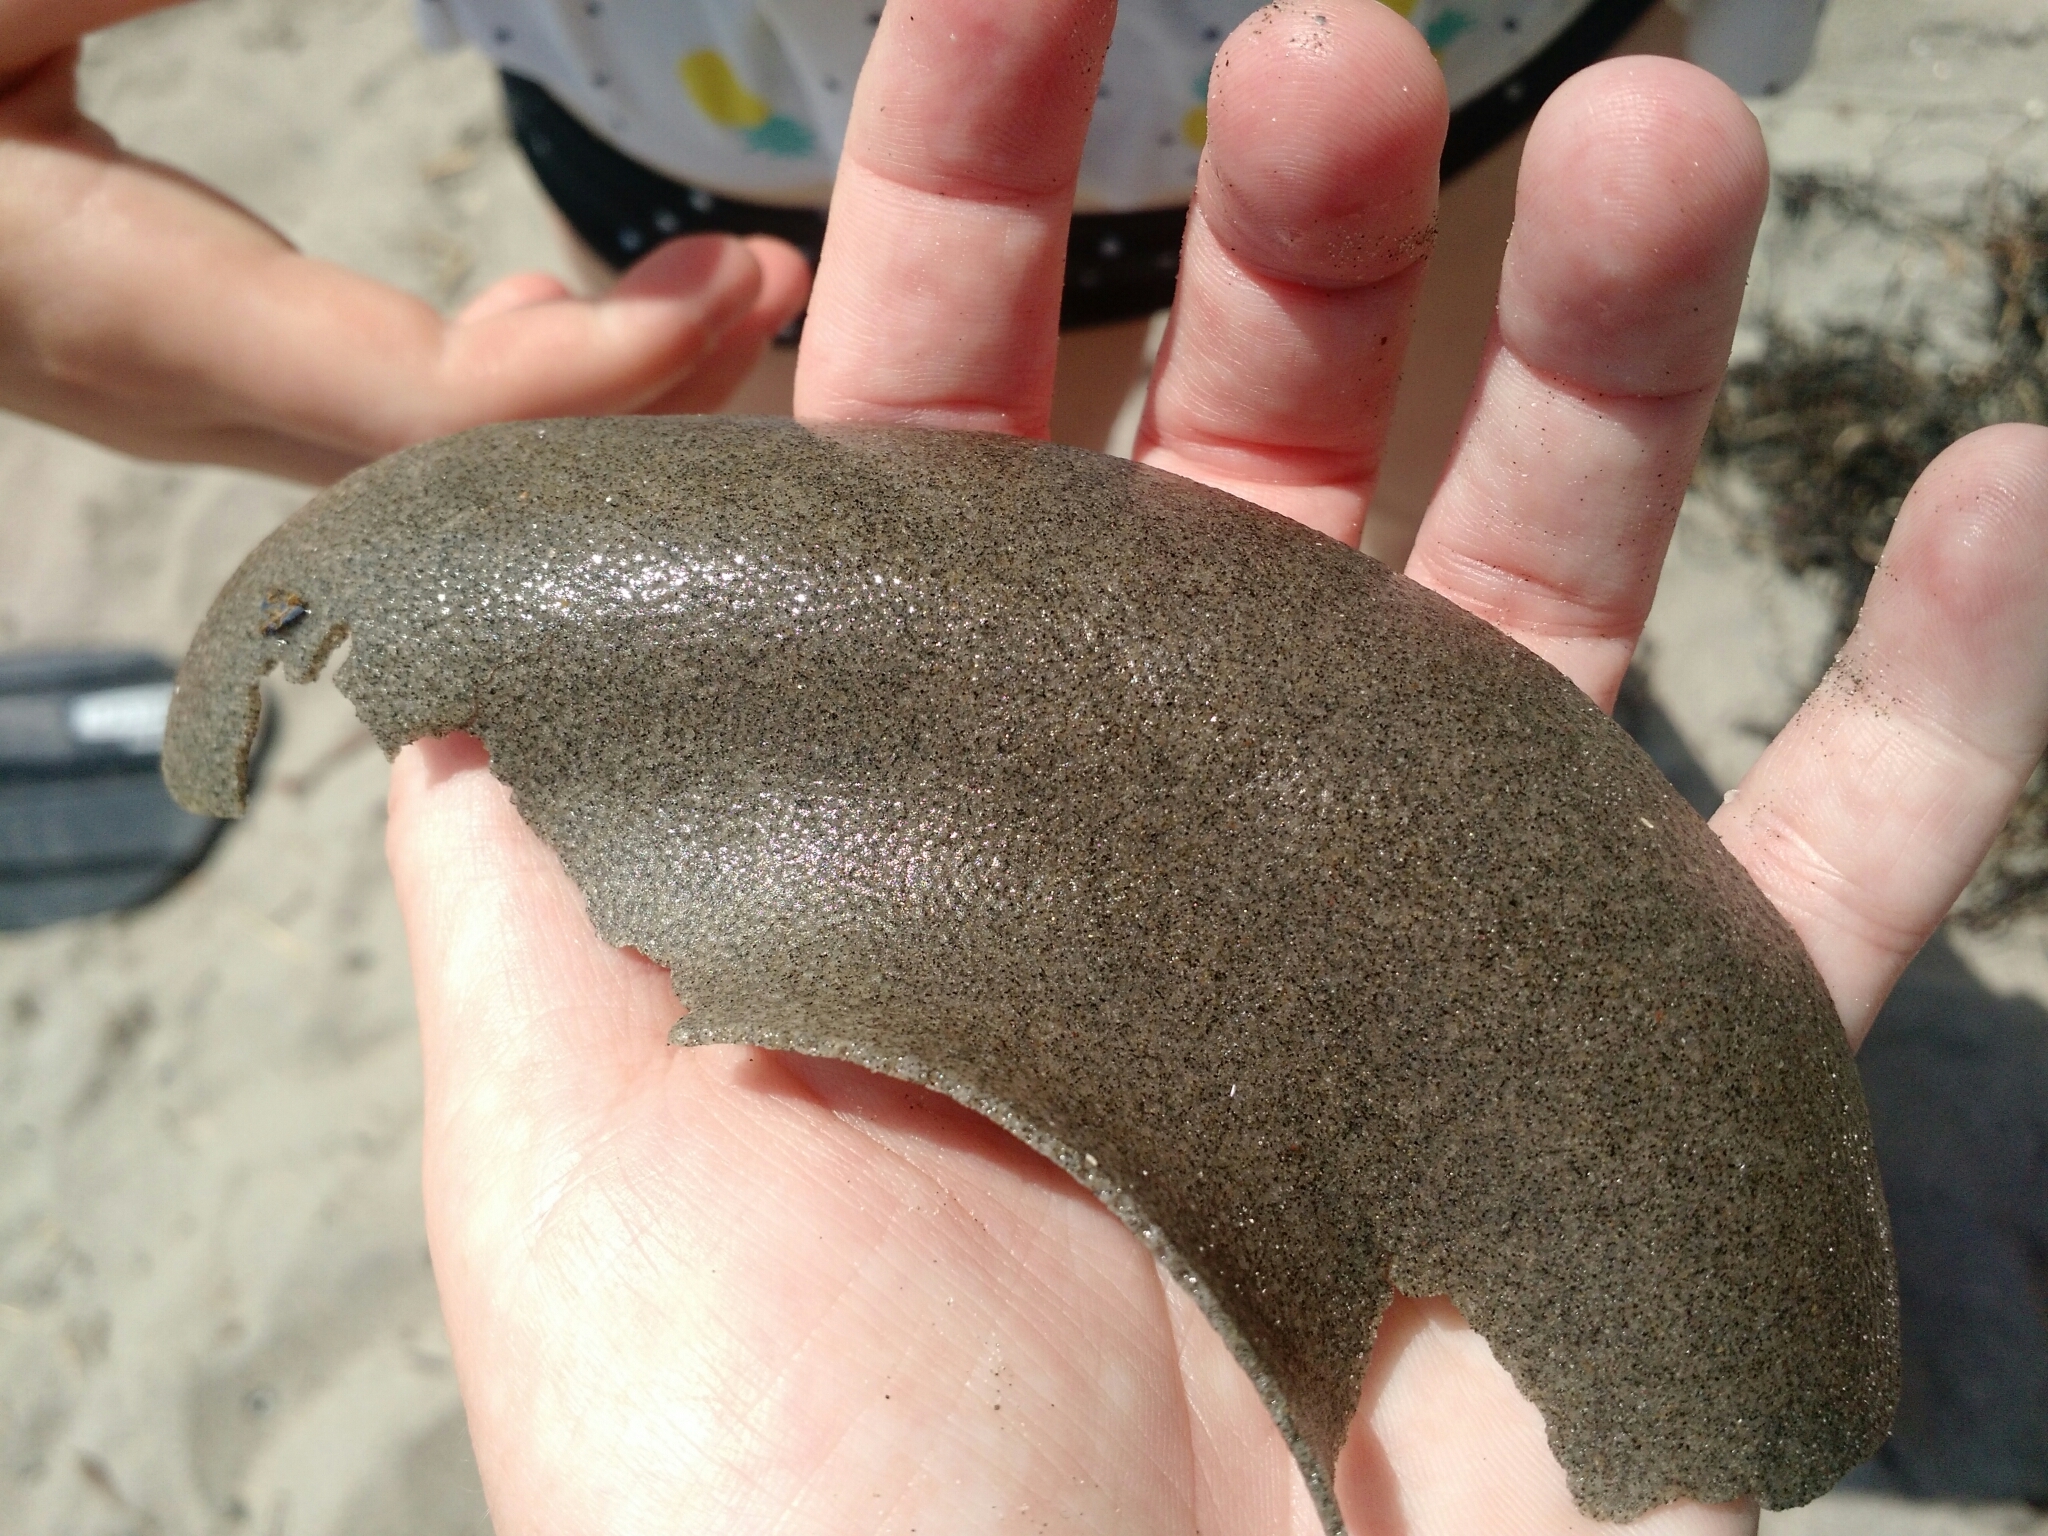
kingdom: Animalia
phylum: Mollusca
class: Gastropoda
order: Littorinimorpha
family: Naticidae
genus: Euspira
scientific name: Euspira heros
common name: Common northern moonsnail
